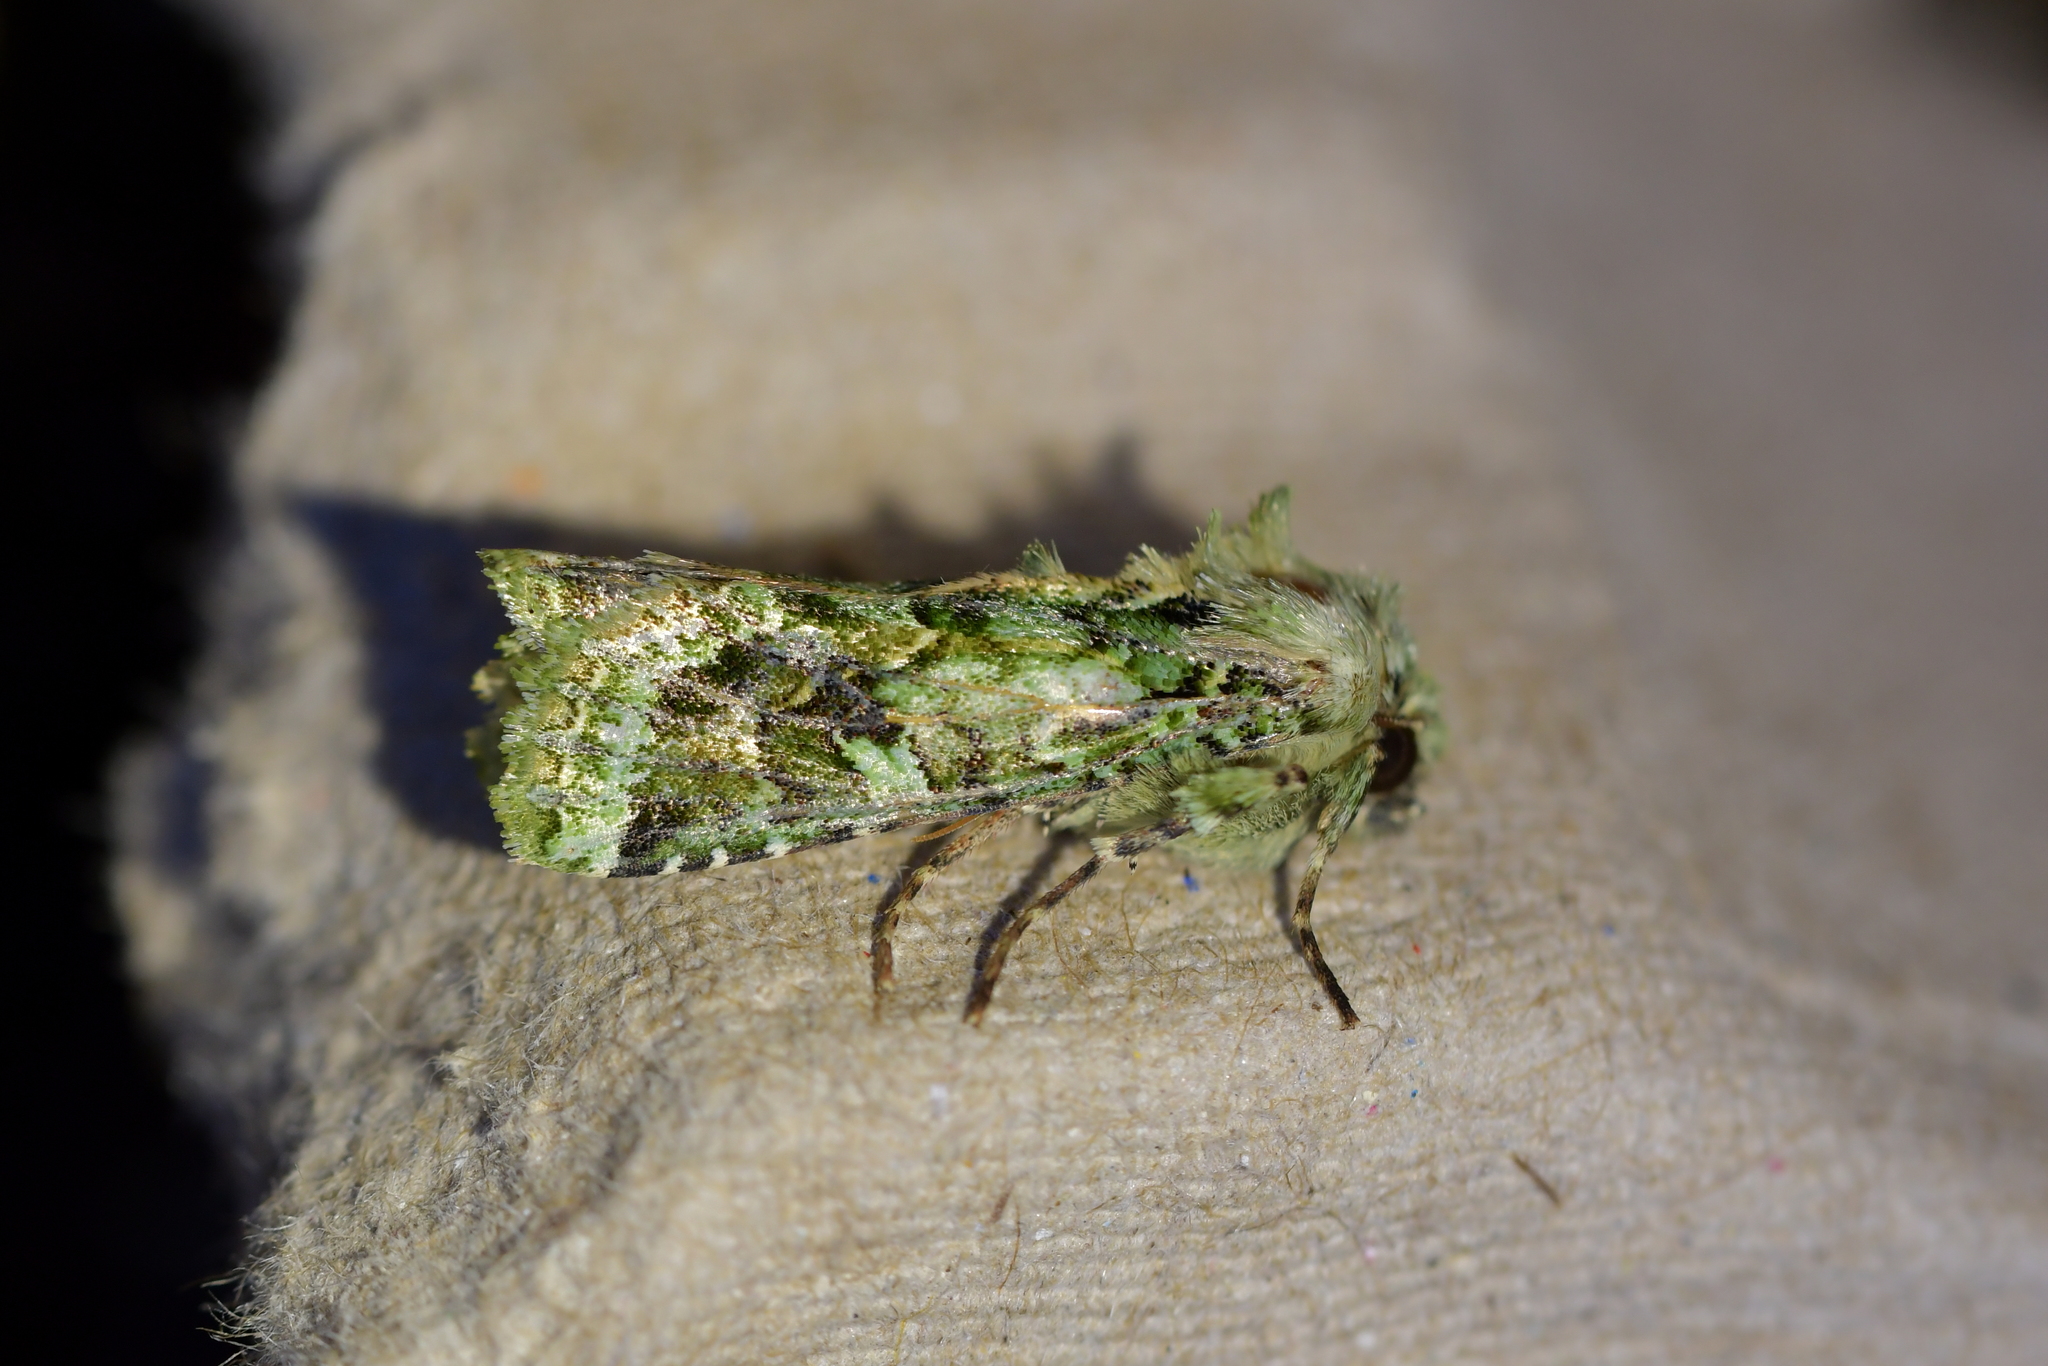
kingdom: Animalia
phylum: Arthropoda
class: Insecta
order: Lepidoptera
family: Noctuidae
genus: Feredayia
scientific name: Feredayia grammosa
